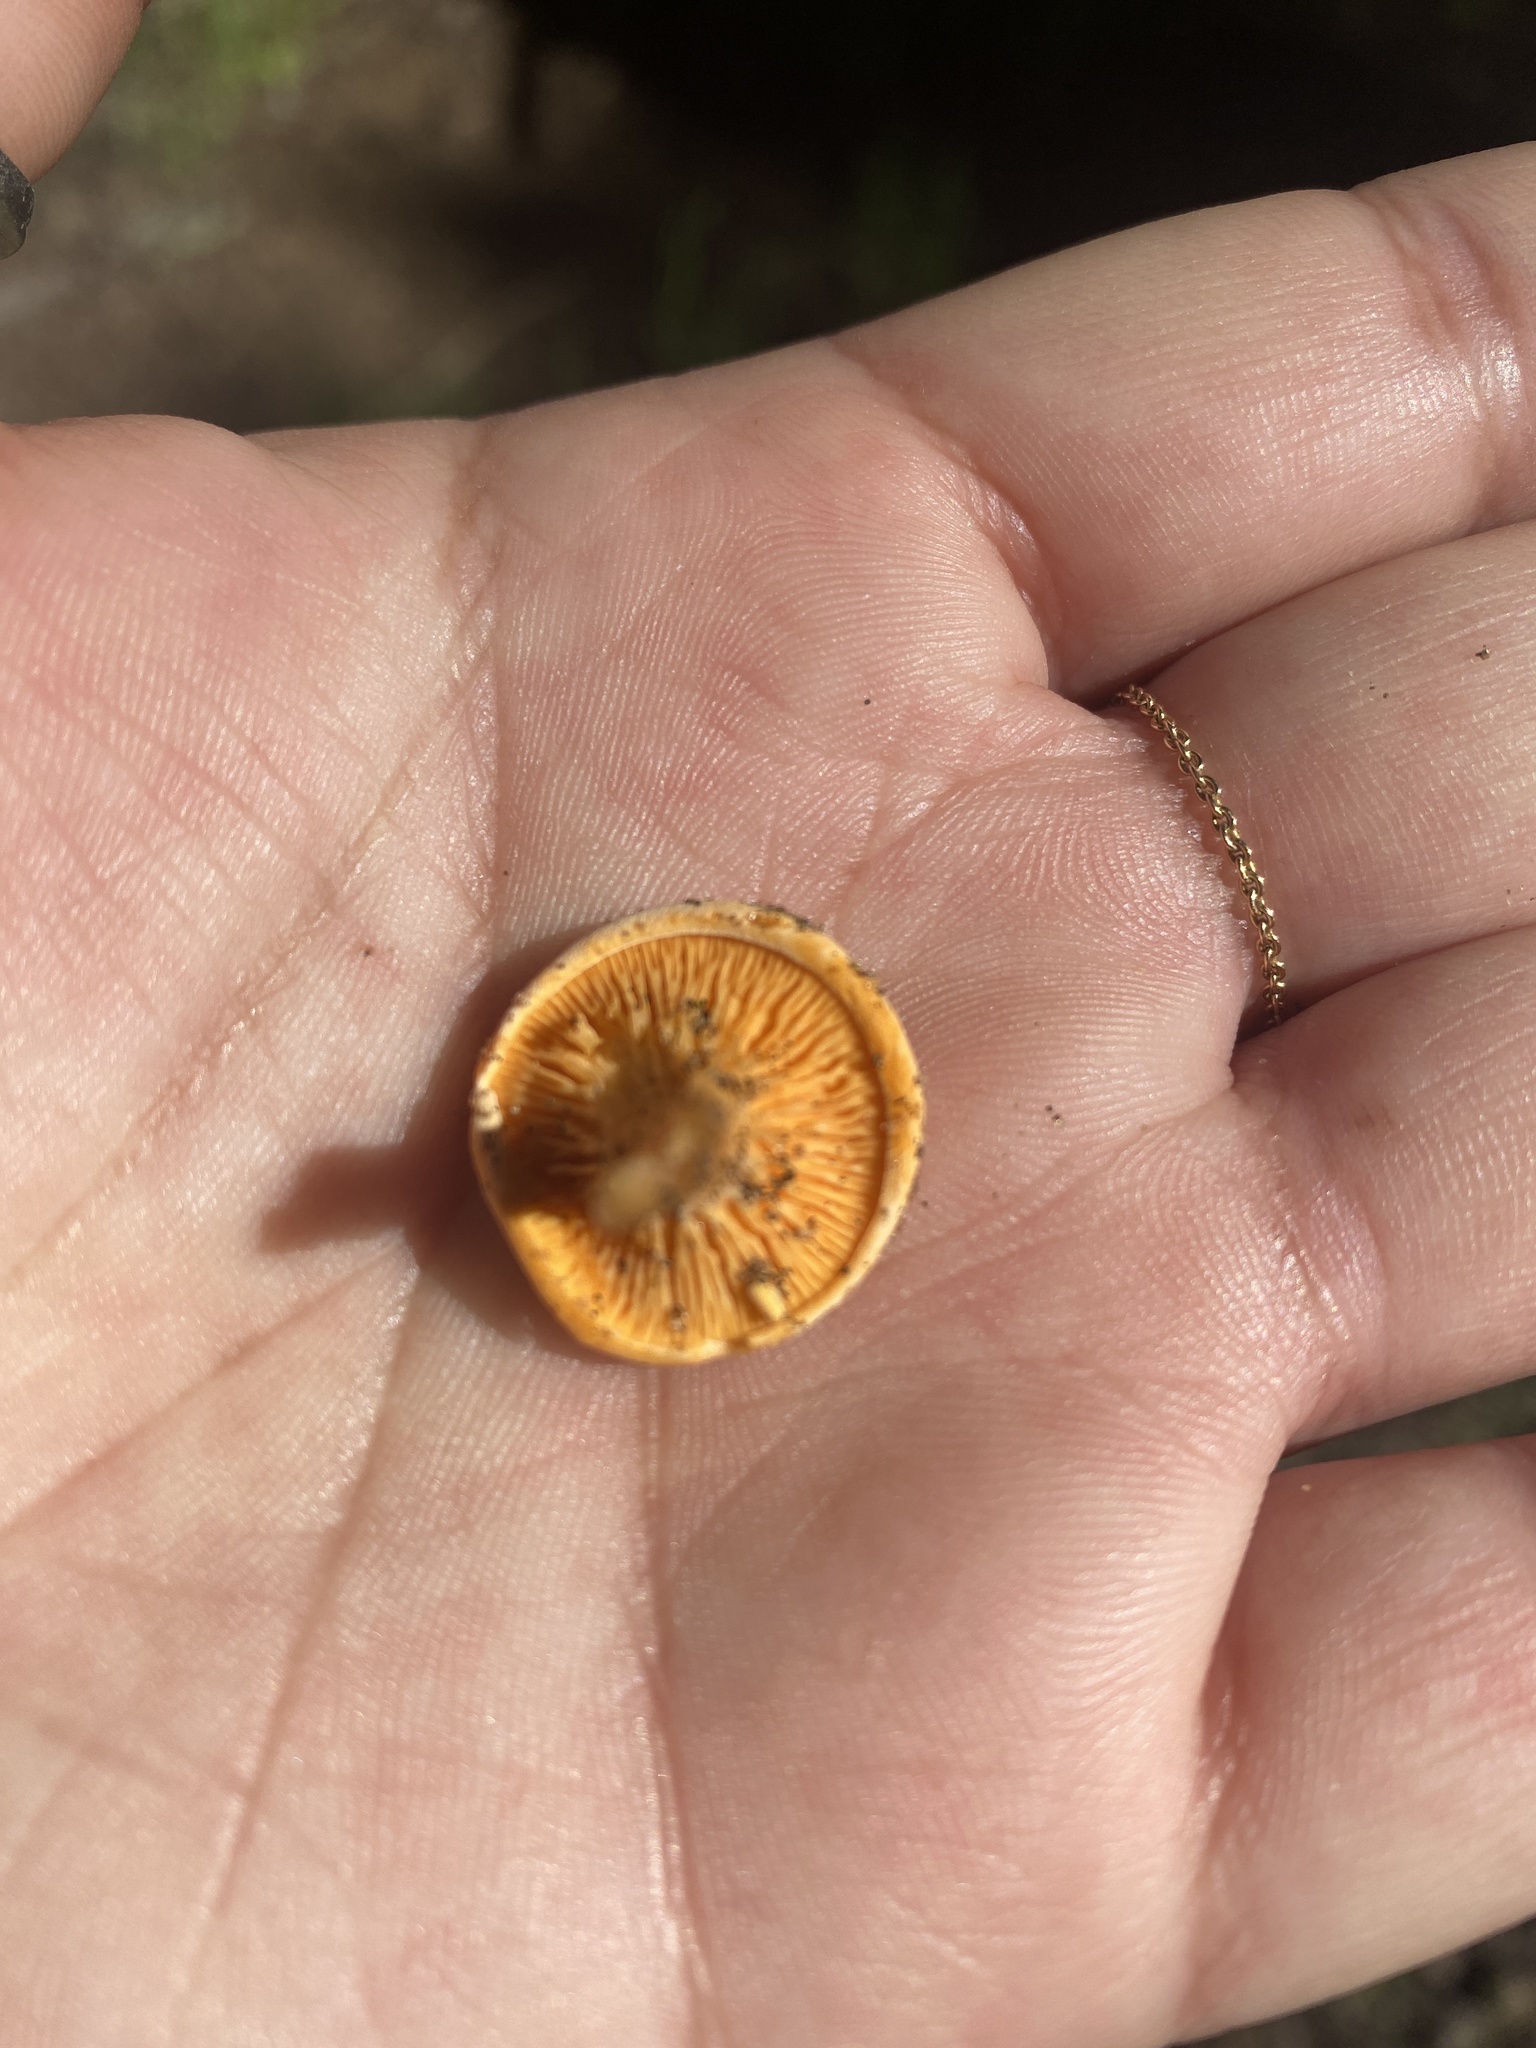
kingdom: Fungi
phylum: Basidiomycota
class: Agaricomycetes
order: Boletales
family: Hygrophoropsidaceae
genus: Hygrophoropsis
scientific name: Hygrophoropsis aurantiaca
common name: False chanterelle
